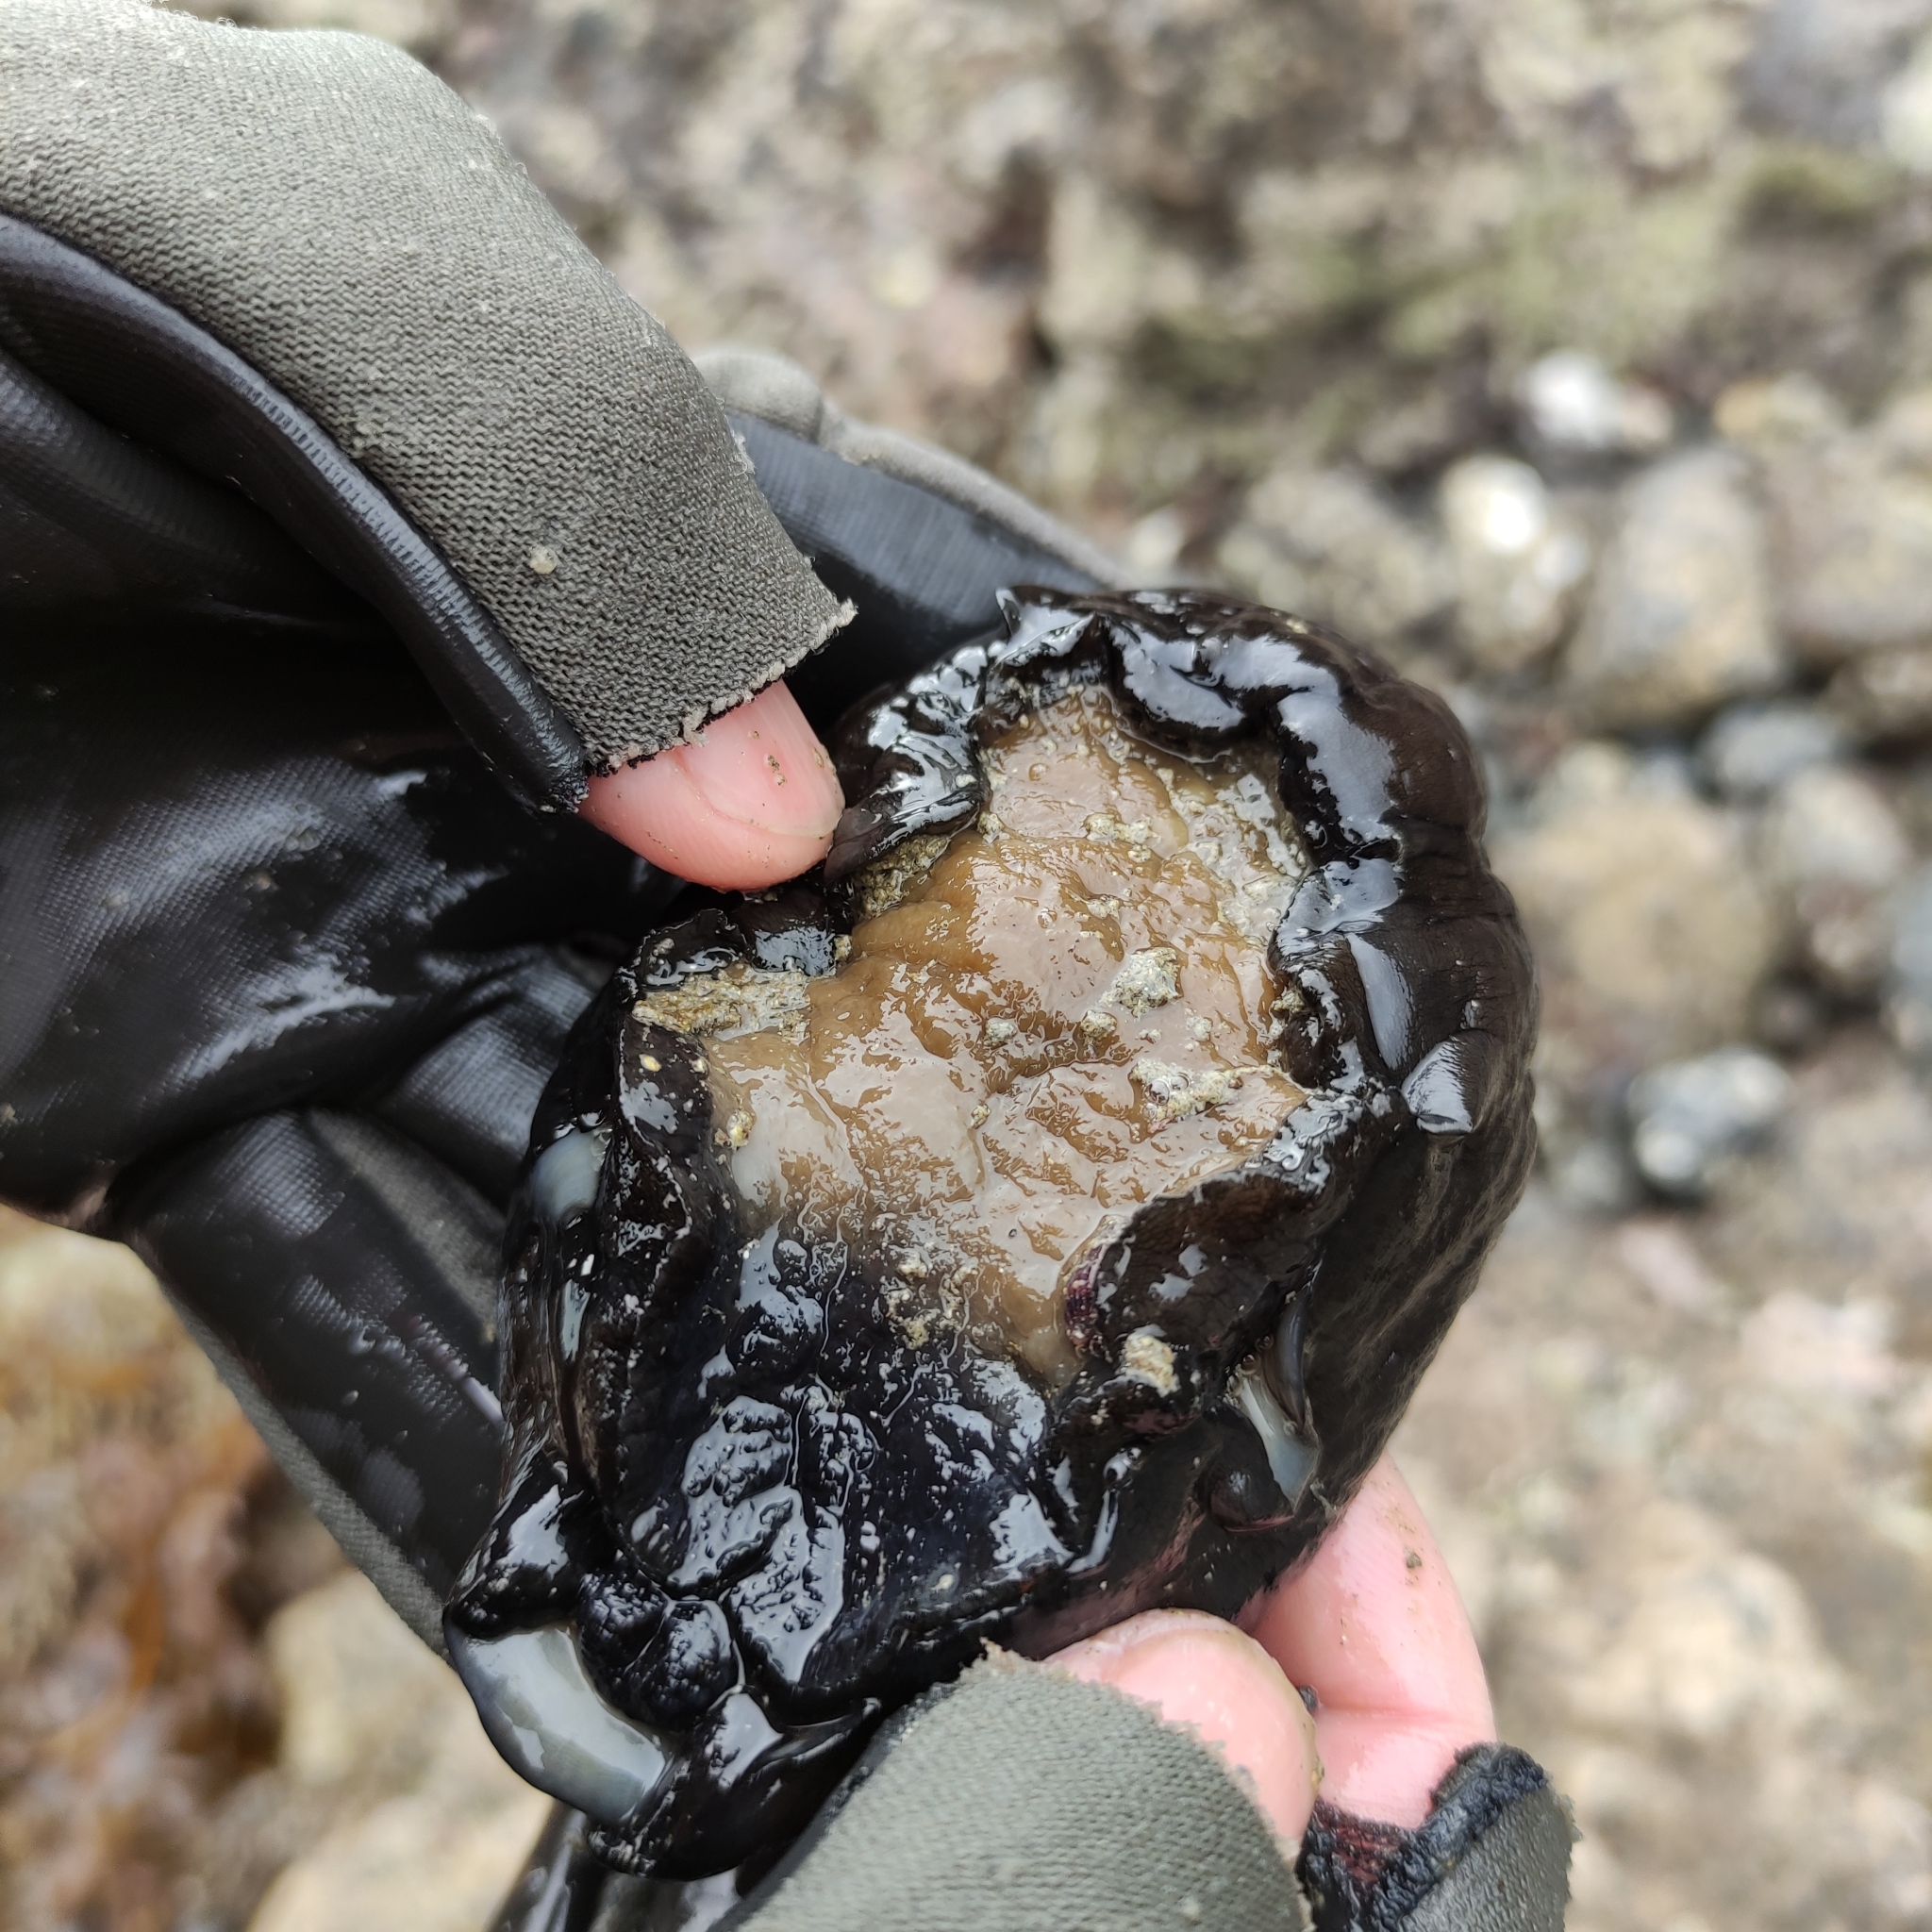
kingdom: Animalia
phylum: Mollusca
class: Gastropoda
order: Lepetellida
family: Fissurellidae
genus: Scutus
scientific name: Scutus breviculus
